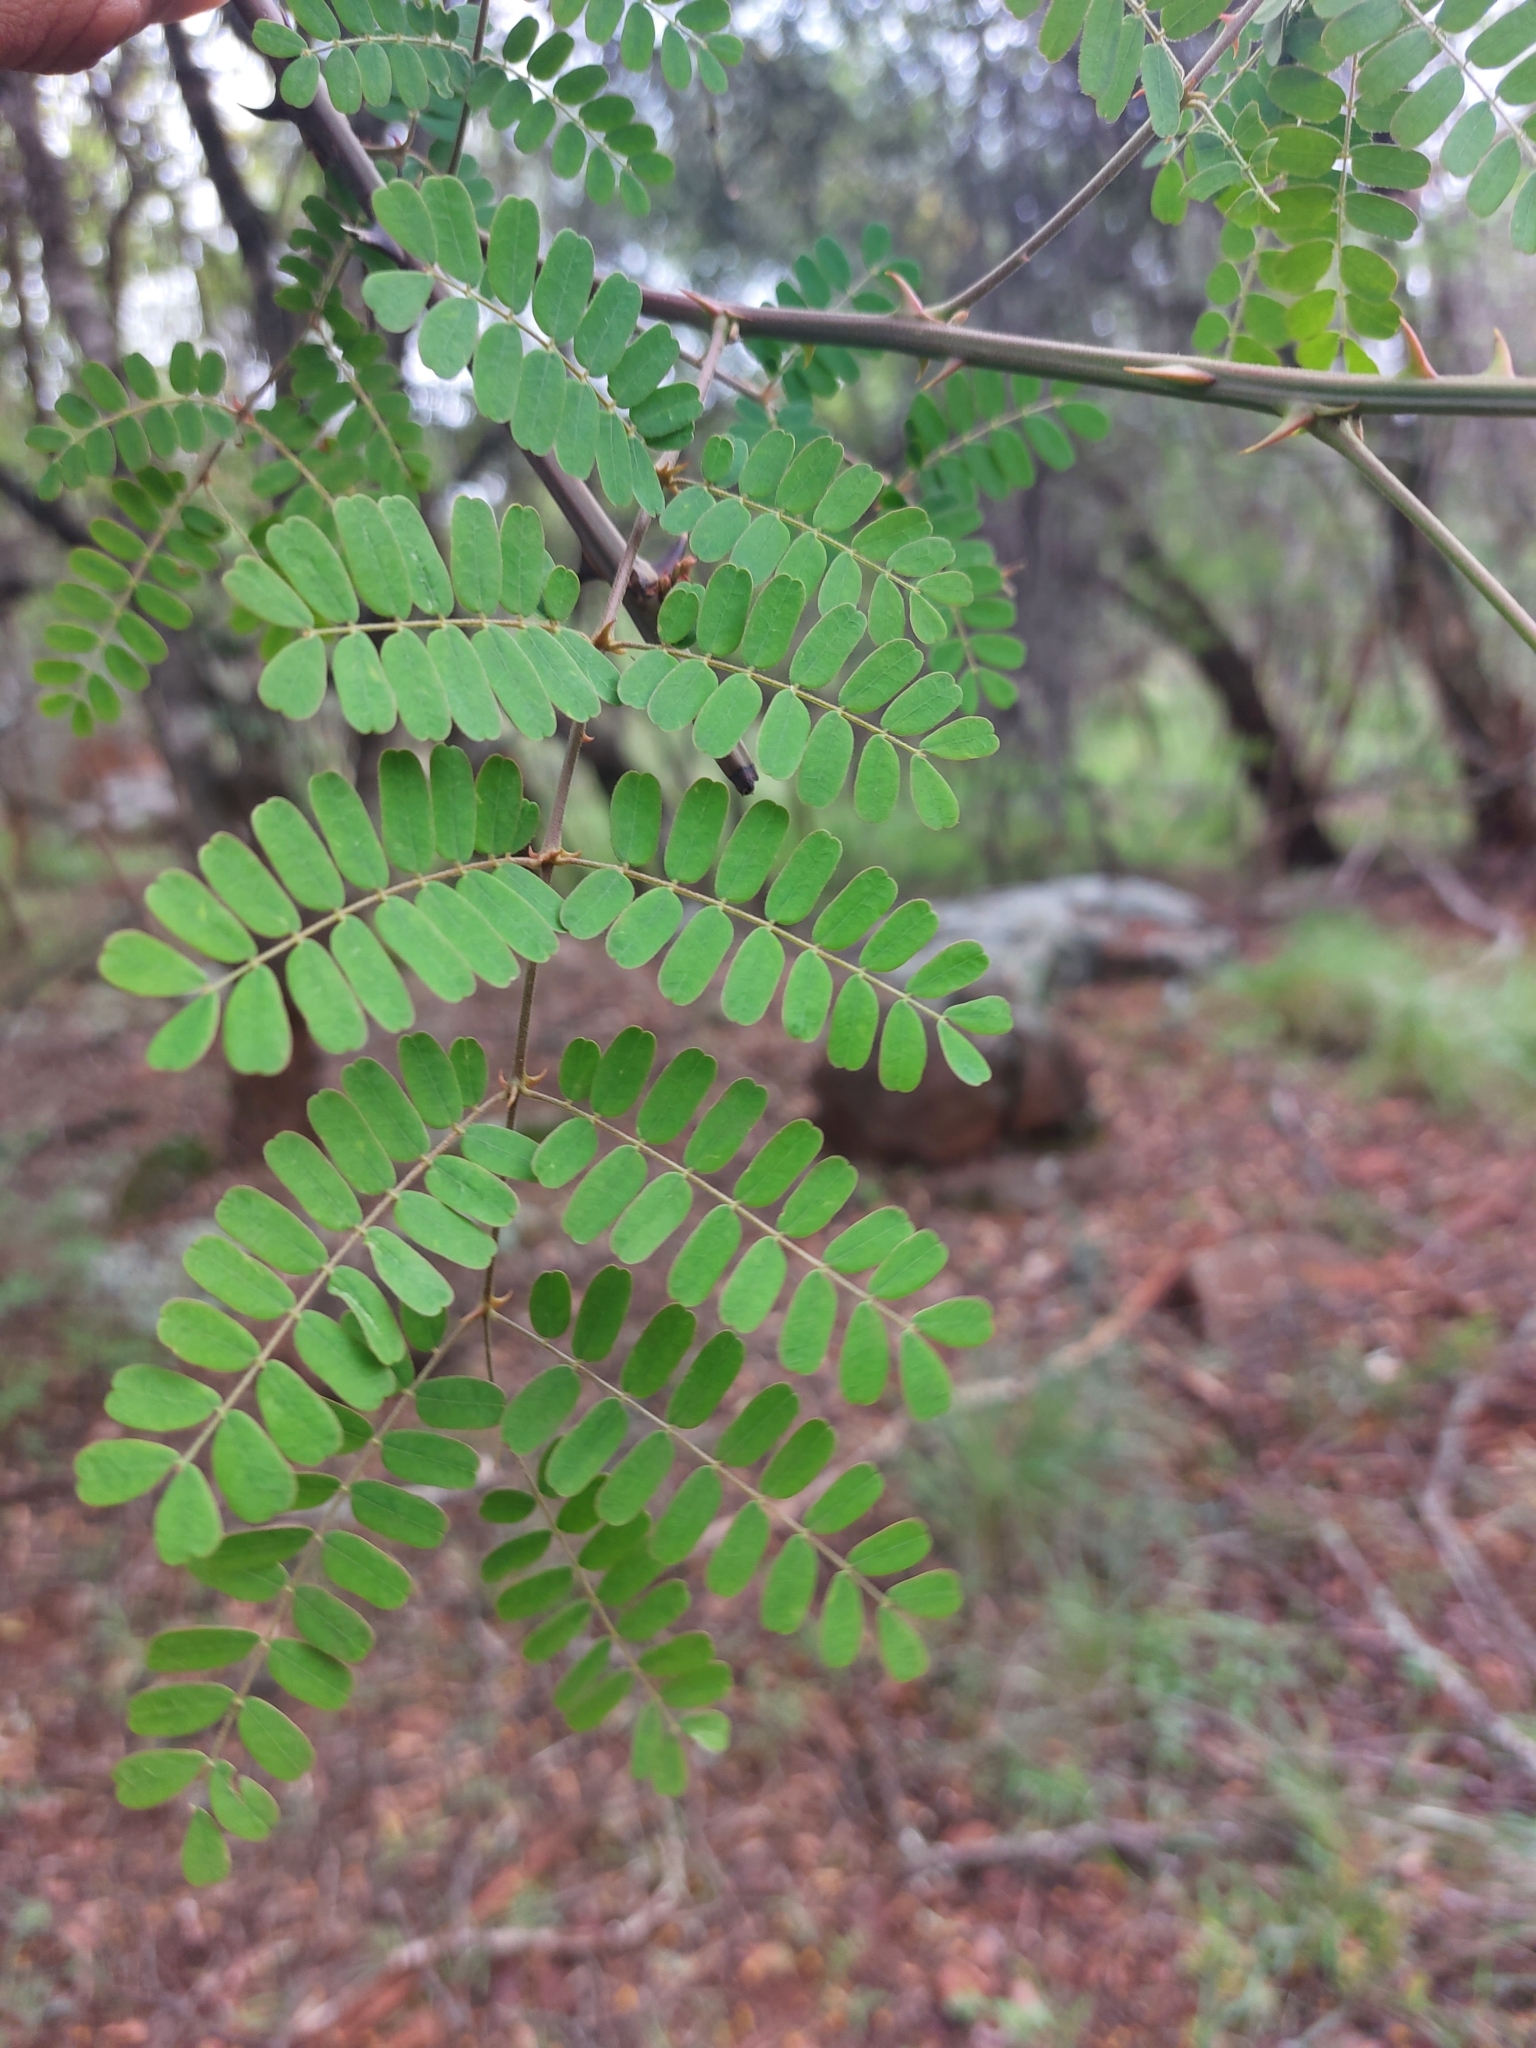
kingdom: Plantae
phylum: Tracheophyta
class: Magnoliopsida
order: Fabales
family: Fabaceae
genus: Pterolobium
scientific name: Pterolobium stellatum
